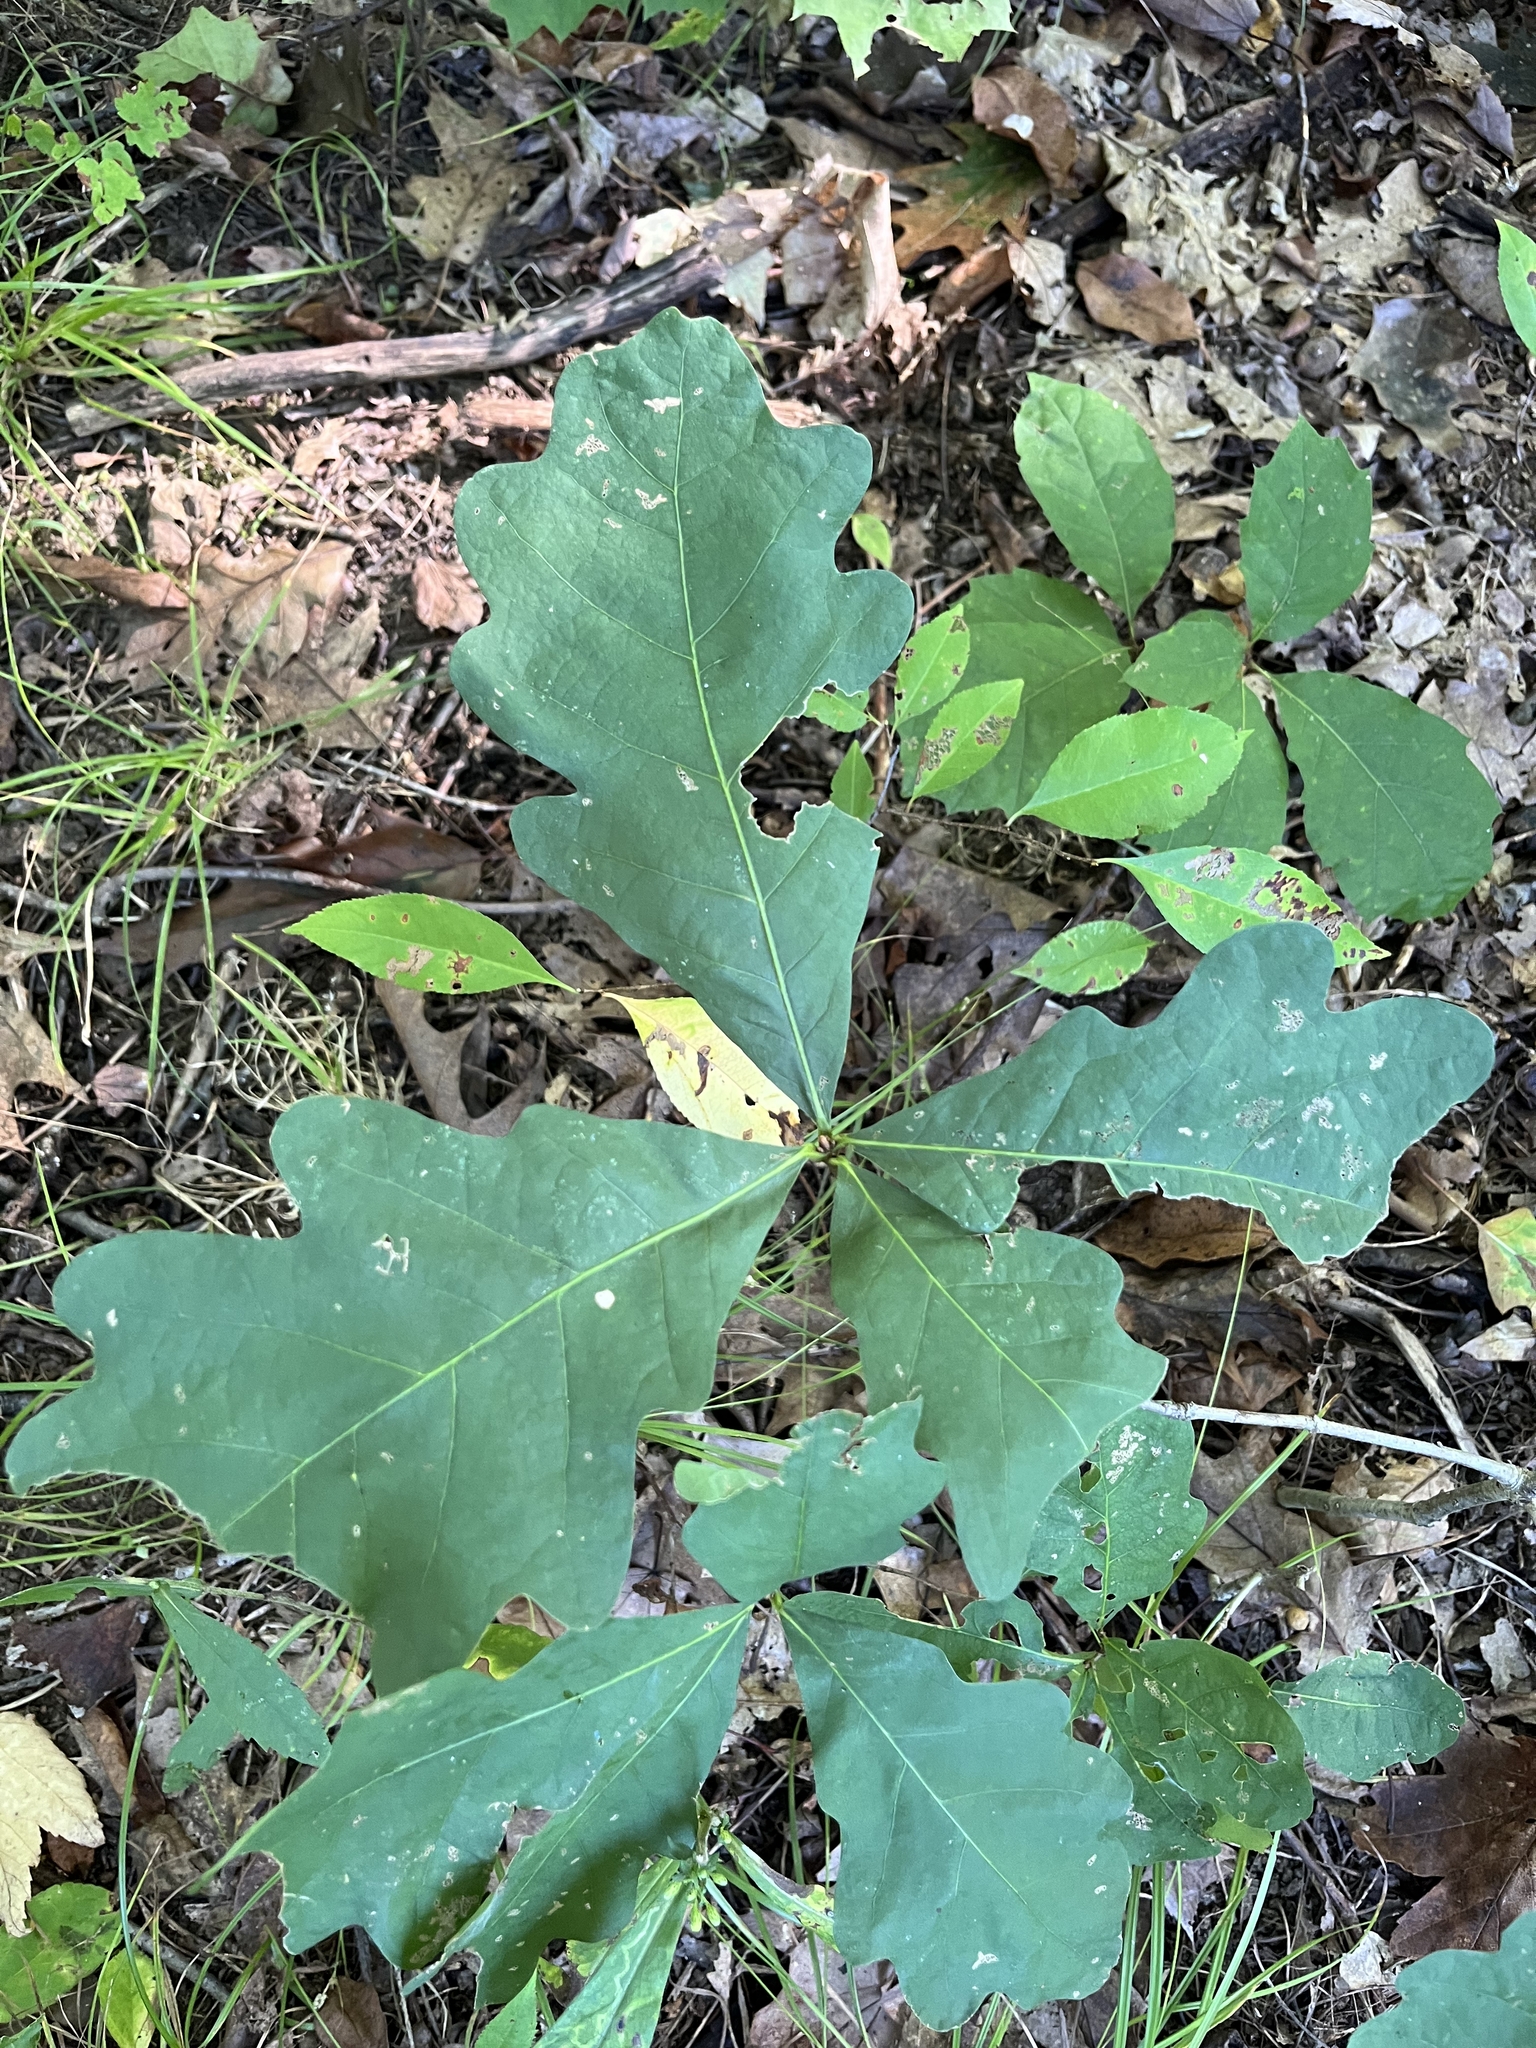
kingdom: Plantae
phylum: Tracheophyta
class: Magnoliopsida
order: Fagales
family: Fagaceae
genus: Quercus
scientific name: Quercus alba
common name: White oak
